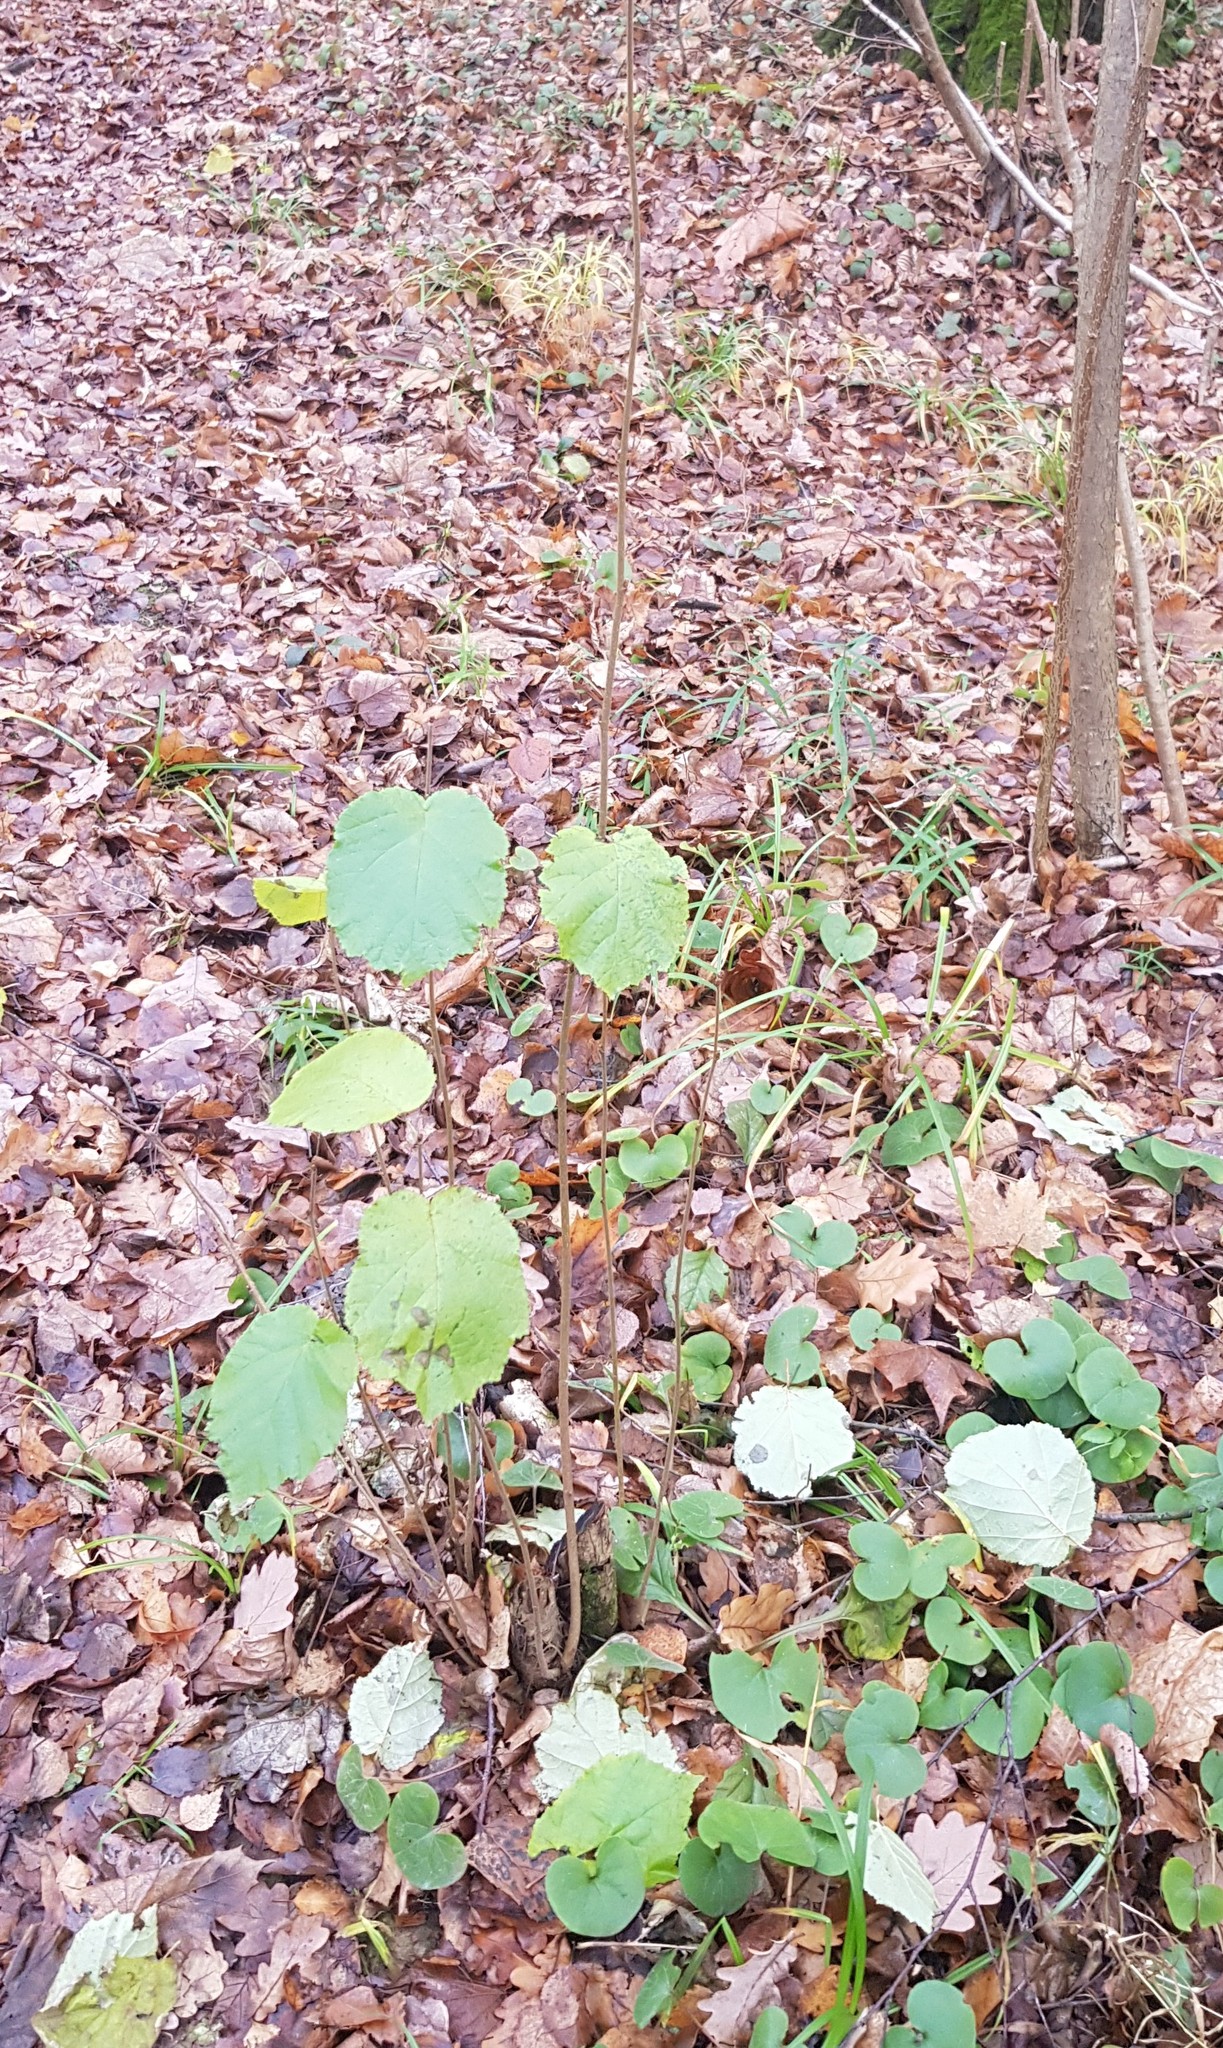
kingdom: Plantae
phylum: Tracheophyta
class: Magnoliopsida
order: Fagales
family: Betulaceae
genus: Corylus
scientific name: Corylus avellana
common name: European hazel
